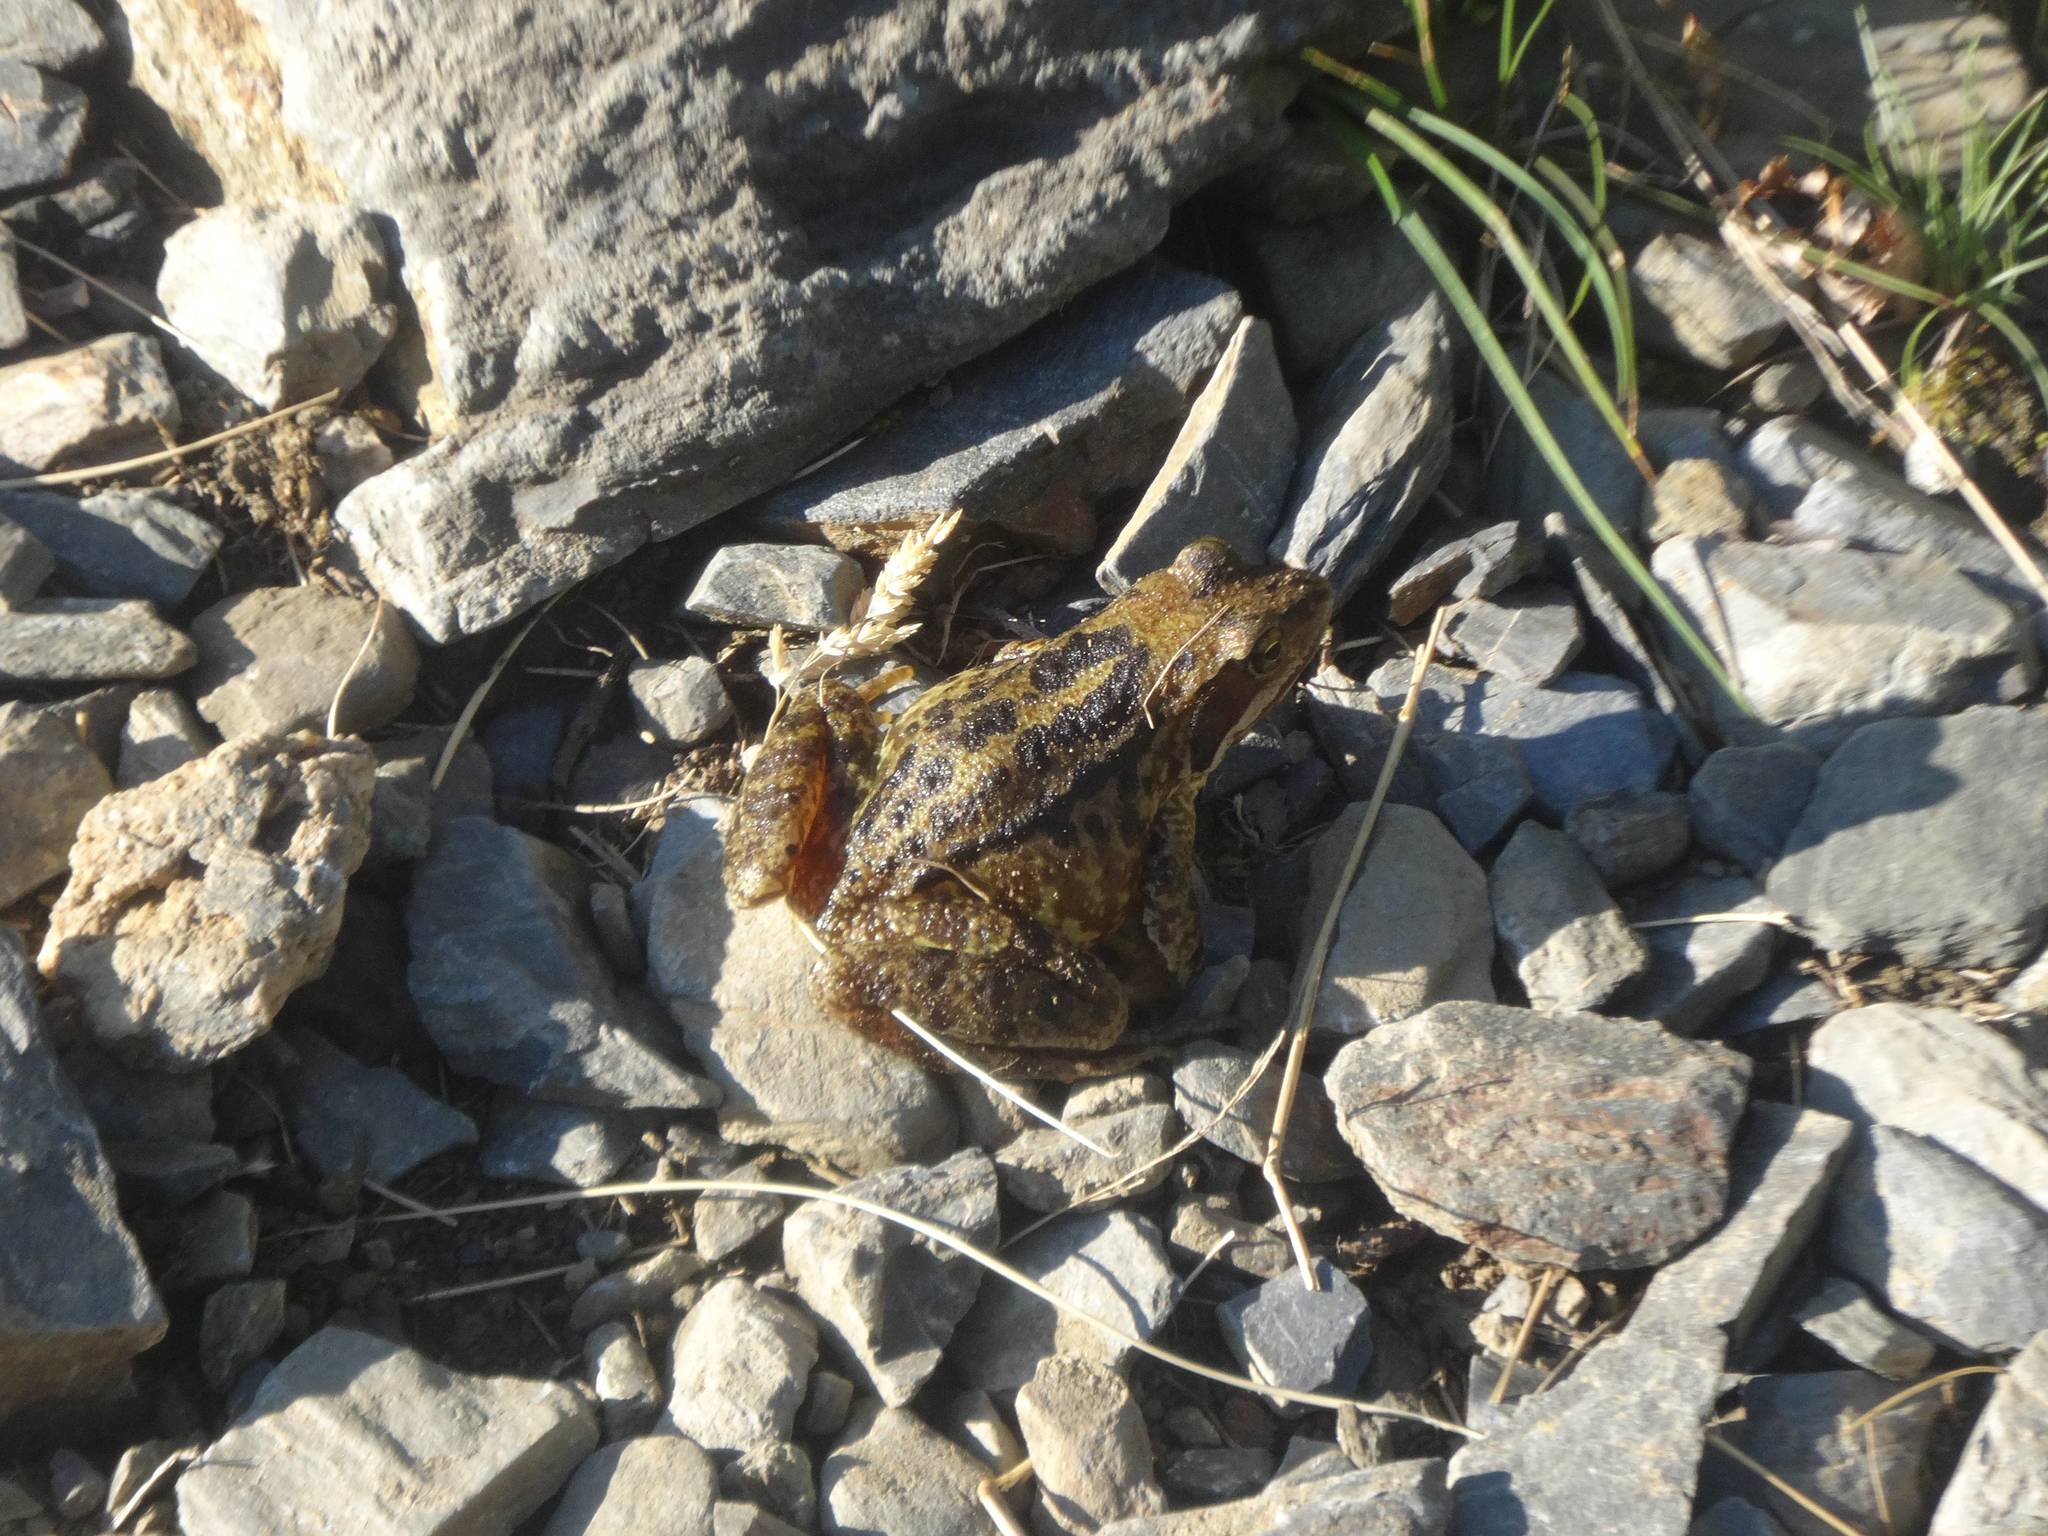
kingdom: Animalia
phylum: Chordata
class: Amphibia
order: Anura
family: Ranidae
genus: Rana
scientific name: Rana temporaria
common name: Common frog
